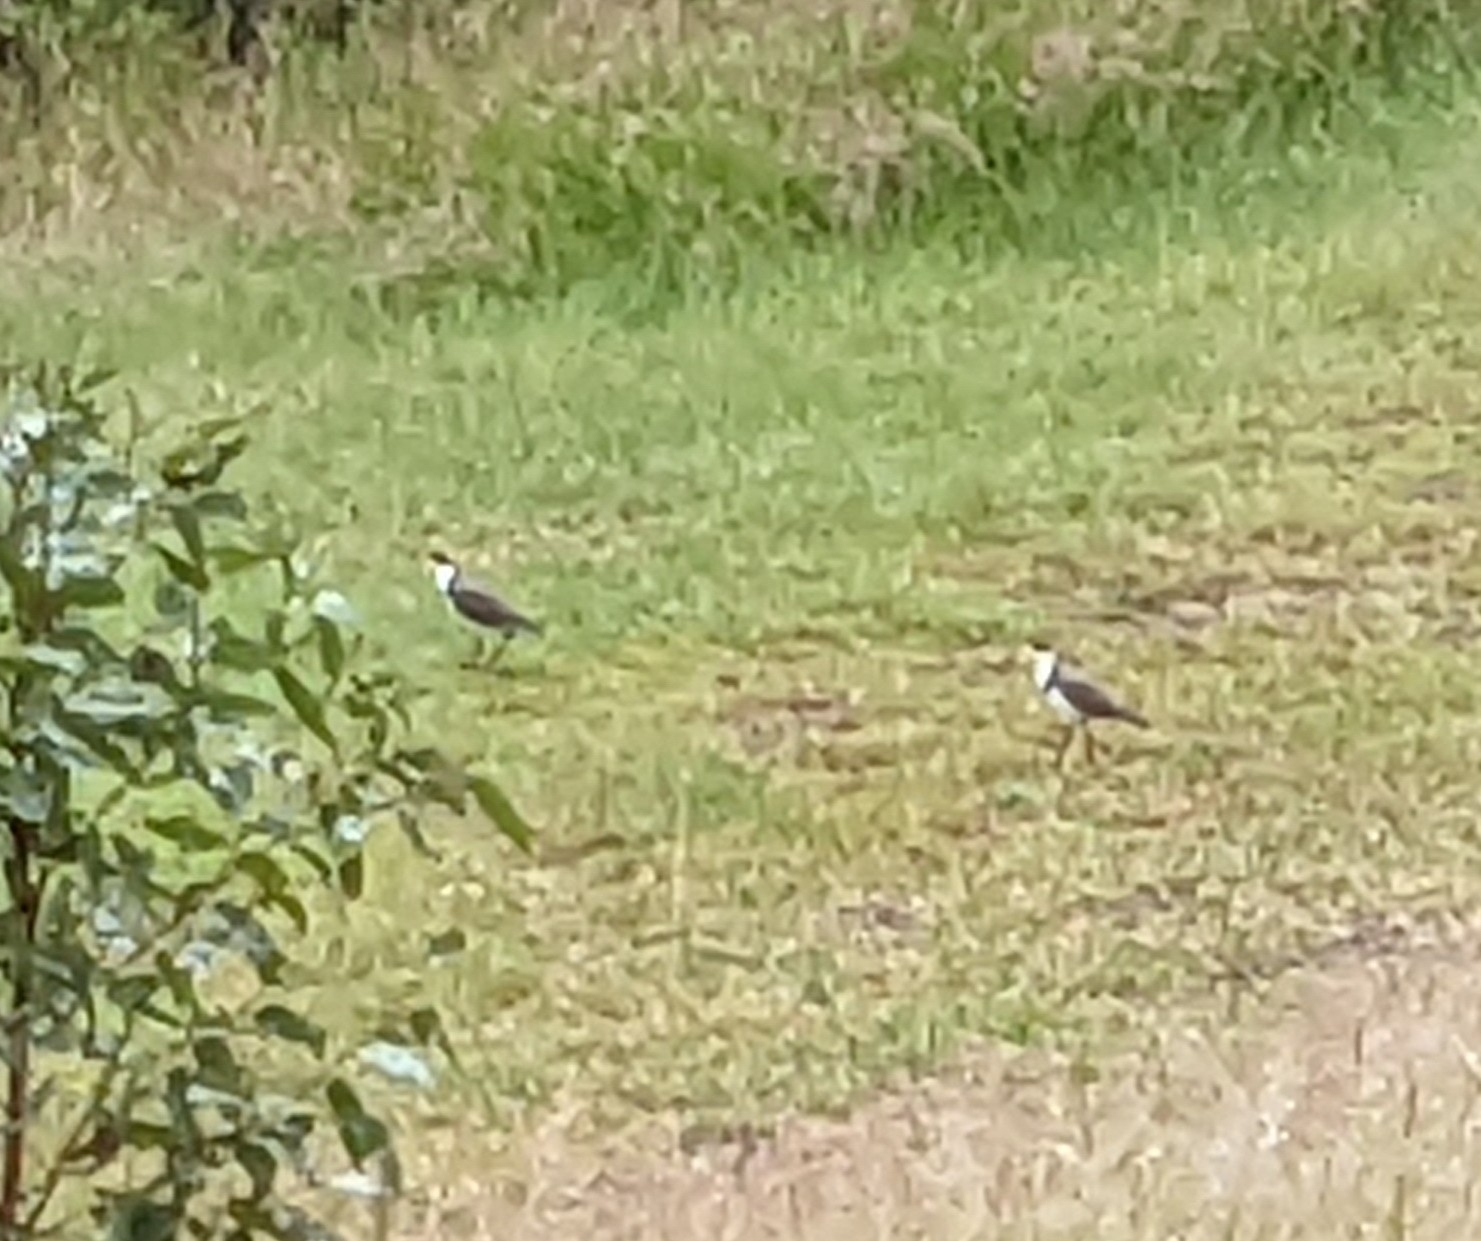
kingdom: Animalia
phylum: Chordata
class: Aves
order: Charadriiformes
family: Charadriidae
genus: Vanellus
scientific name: Vanellus miles
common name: Masked lapwing
